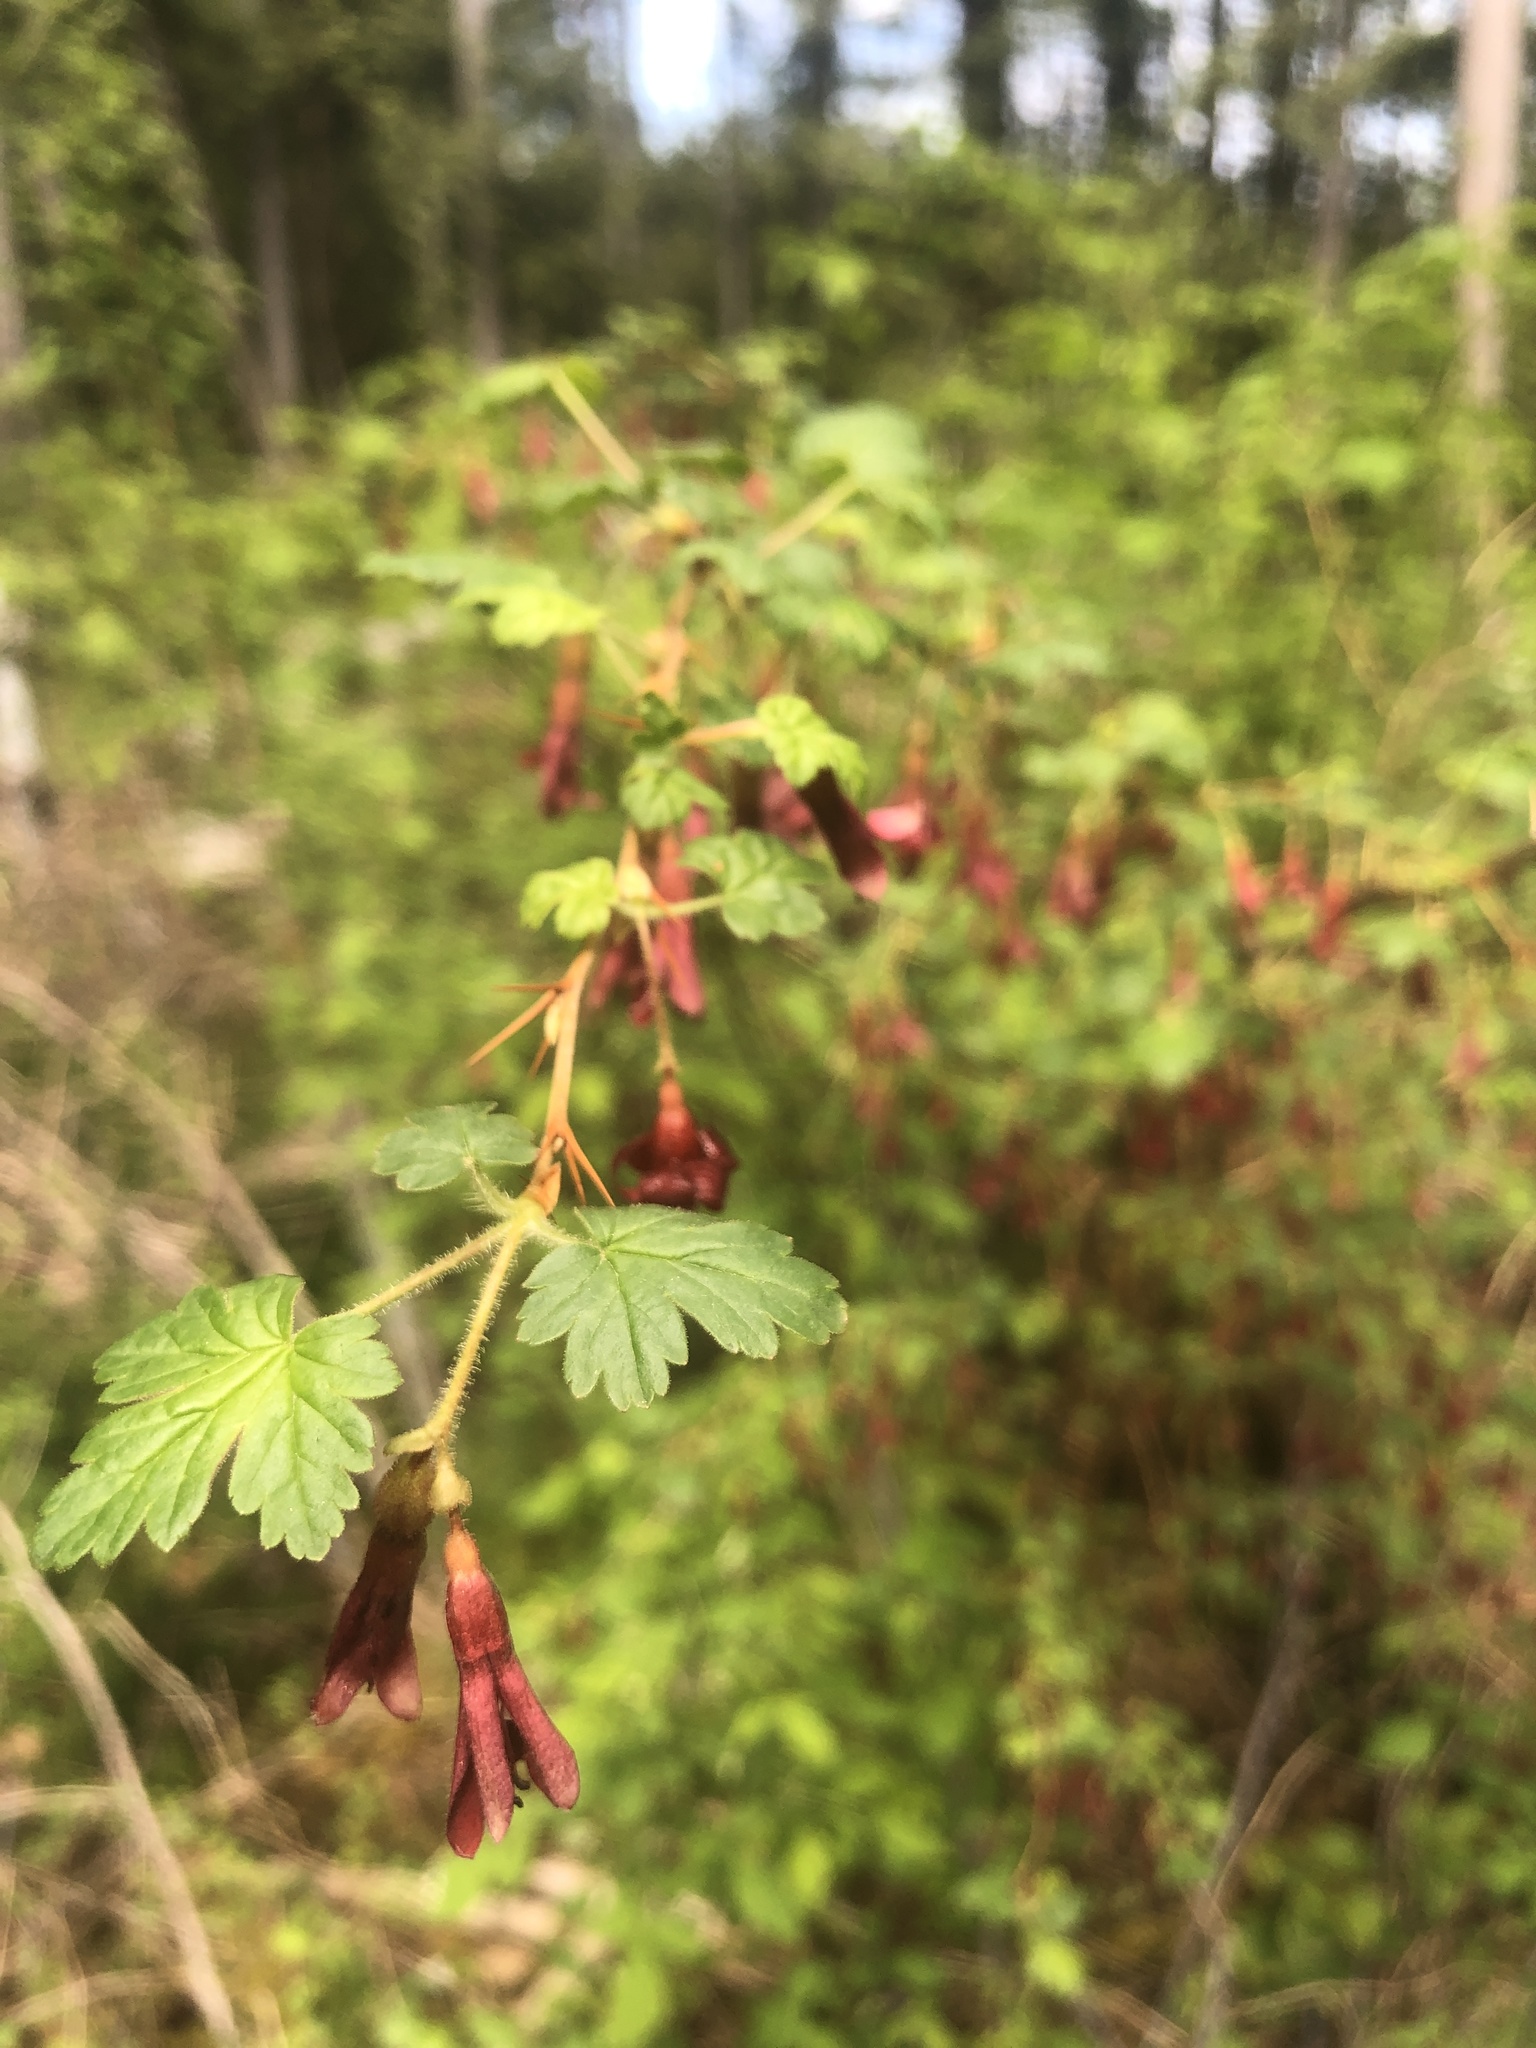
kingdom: Plantae
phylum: Tracheophyta
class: Magnoliopsida
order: Saxifragales
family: Grossulariaceae
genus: Ribes
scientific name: Ribes lobbii
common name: Gummy gooseberry
